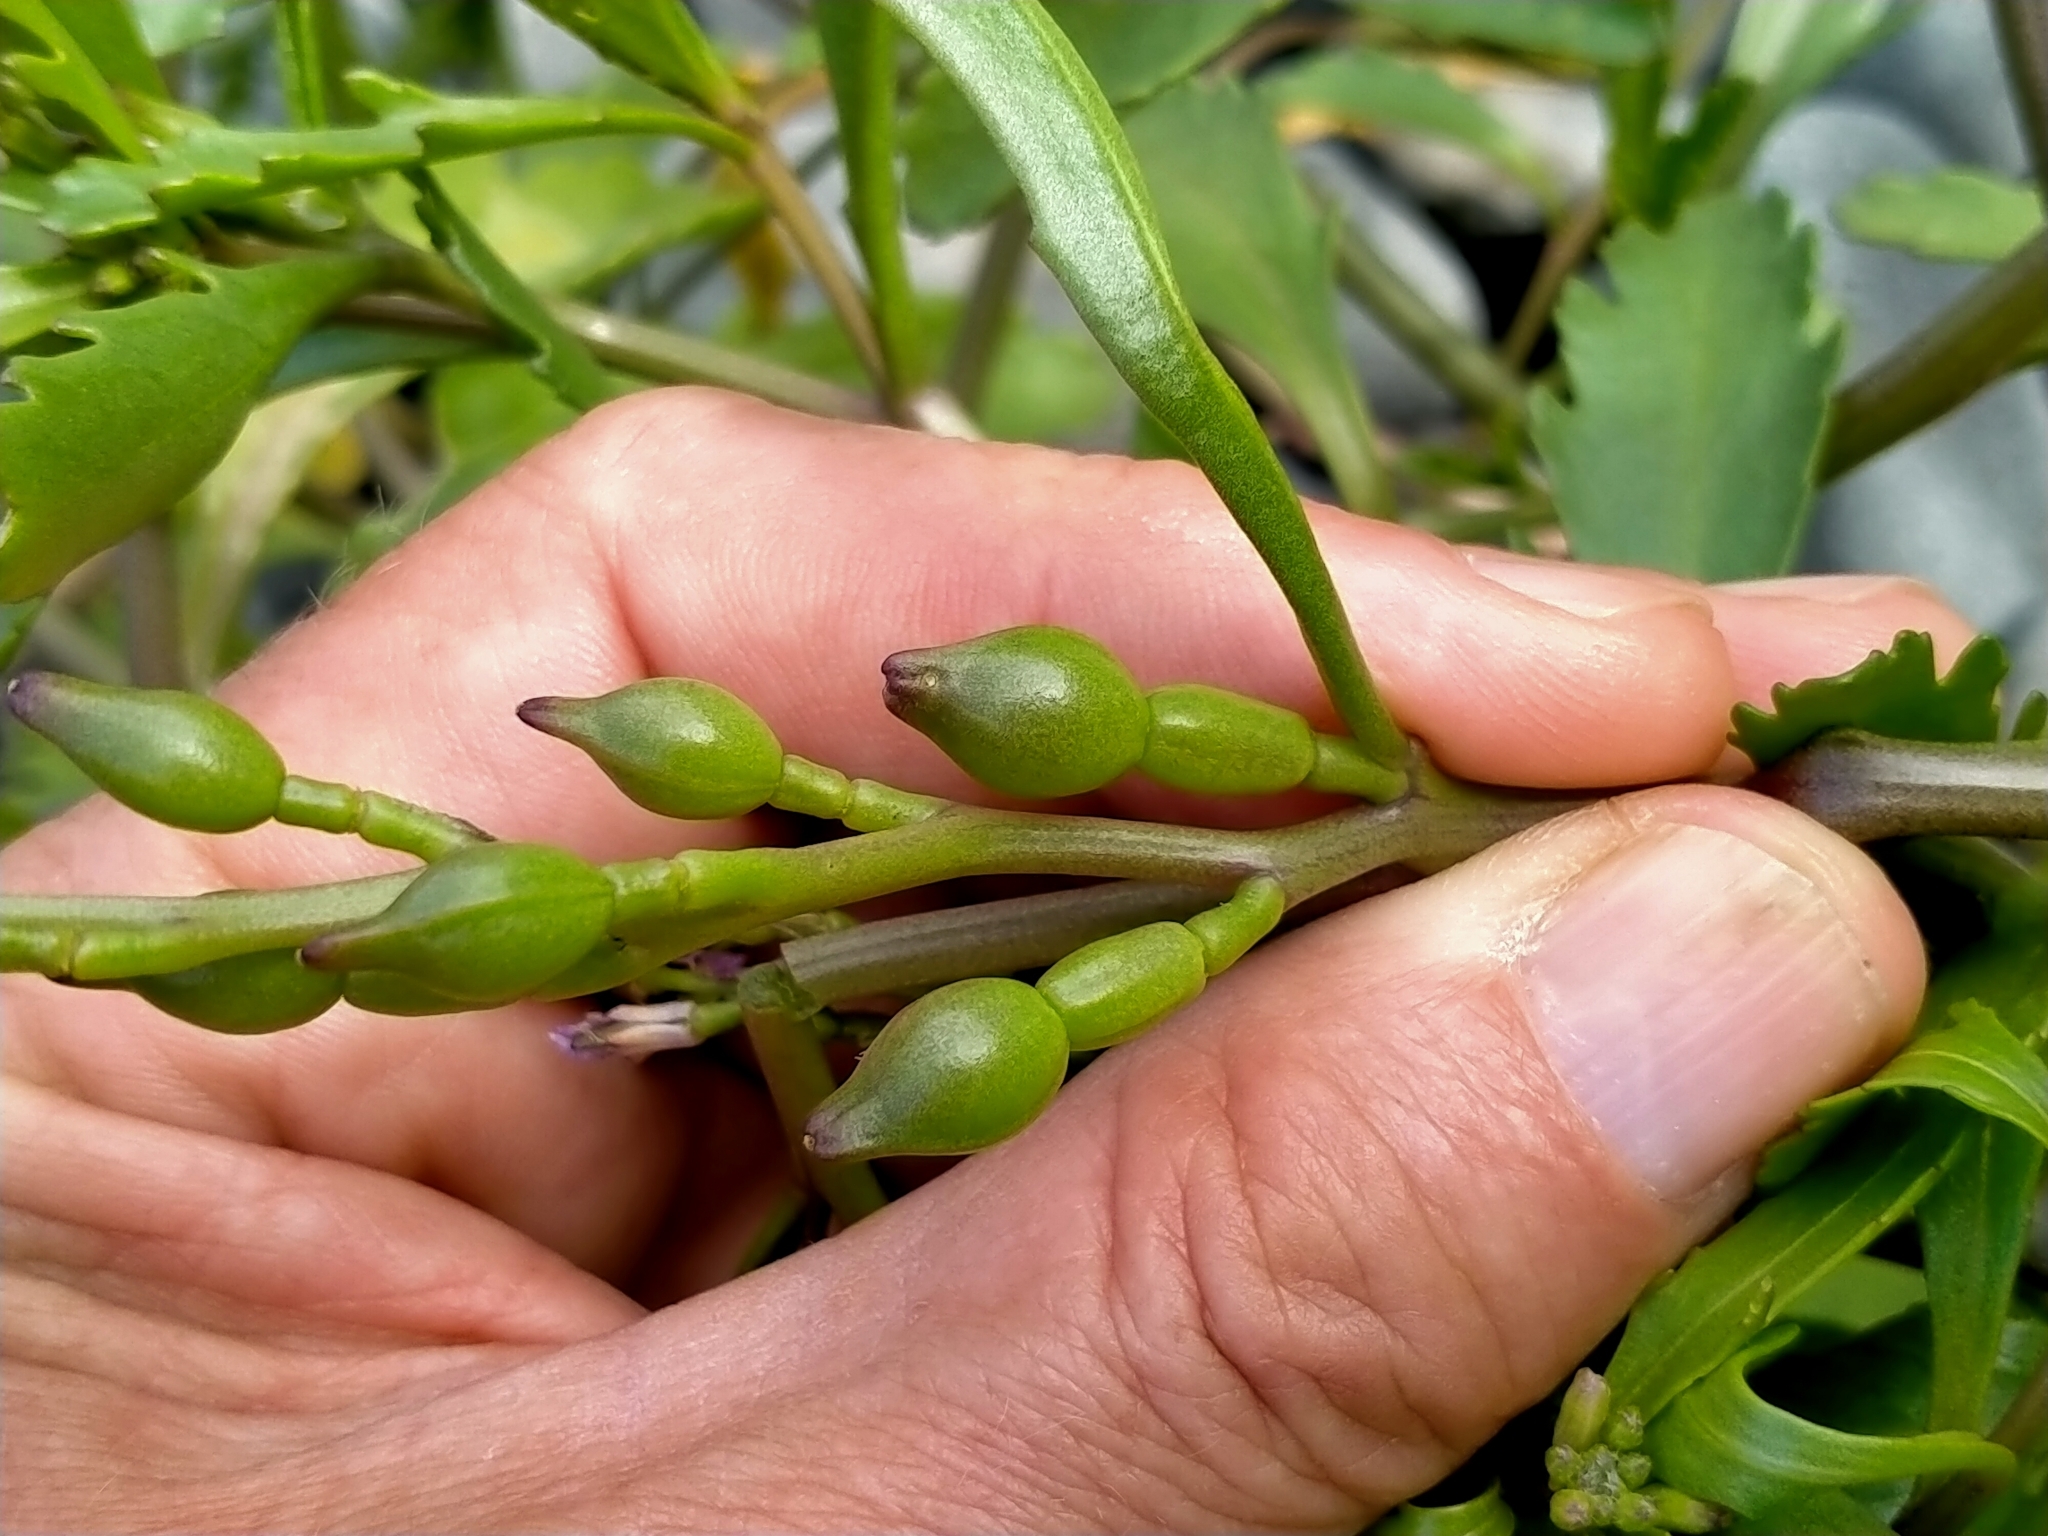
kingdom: Plantae
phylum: Tracheophyta
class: Magnoliopsida
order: Brassicales
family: Brassicaceae
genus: Cakile
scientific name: Cakile edentula
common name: American sea rocket
